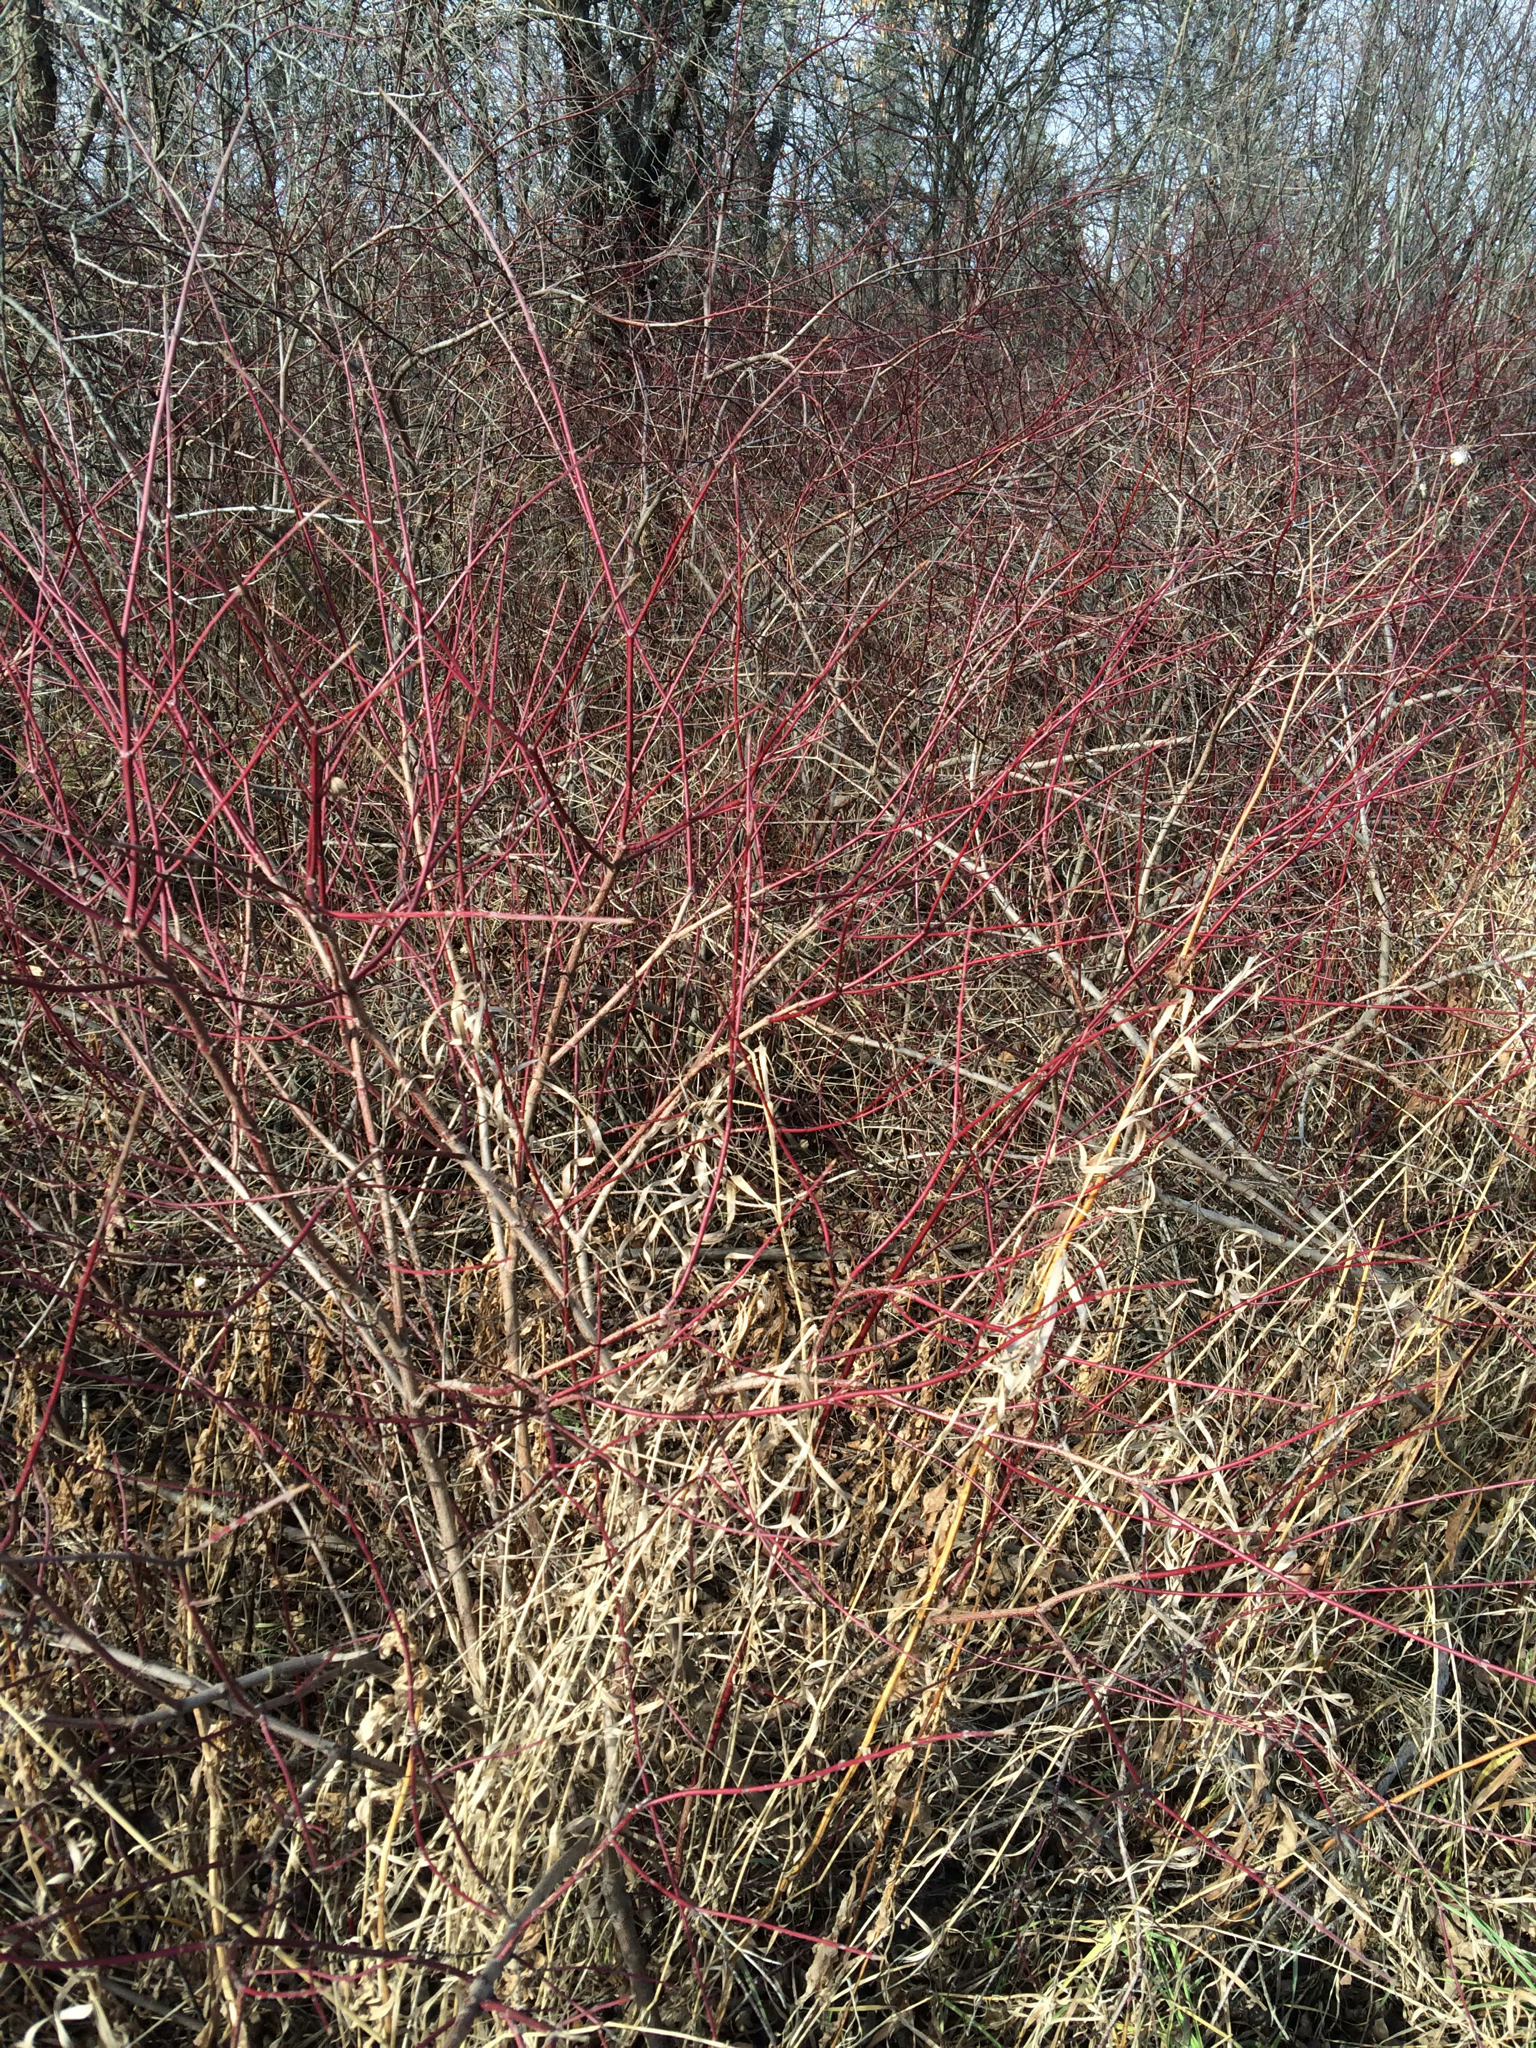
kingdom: Plantae
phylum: Tracheophyta
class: Magnoliopsida
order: Cornales
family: Cornaceae
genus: Cornus
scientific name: Cornus sericea
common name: Red-osier dogwood
